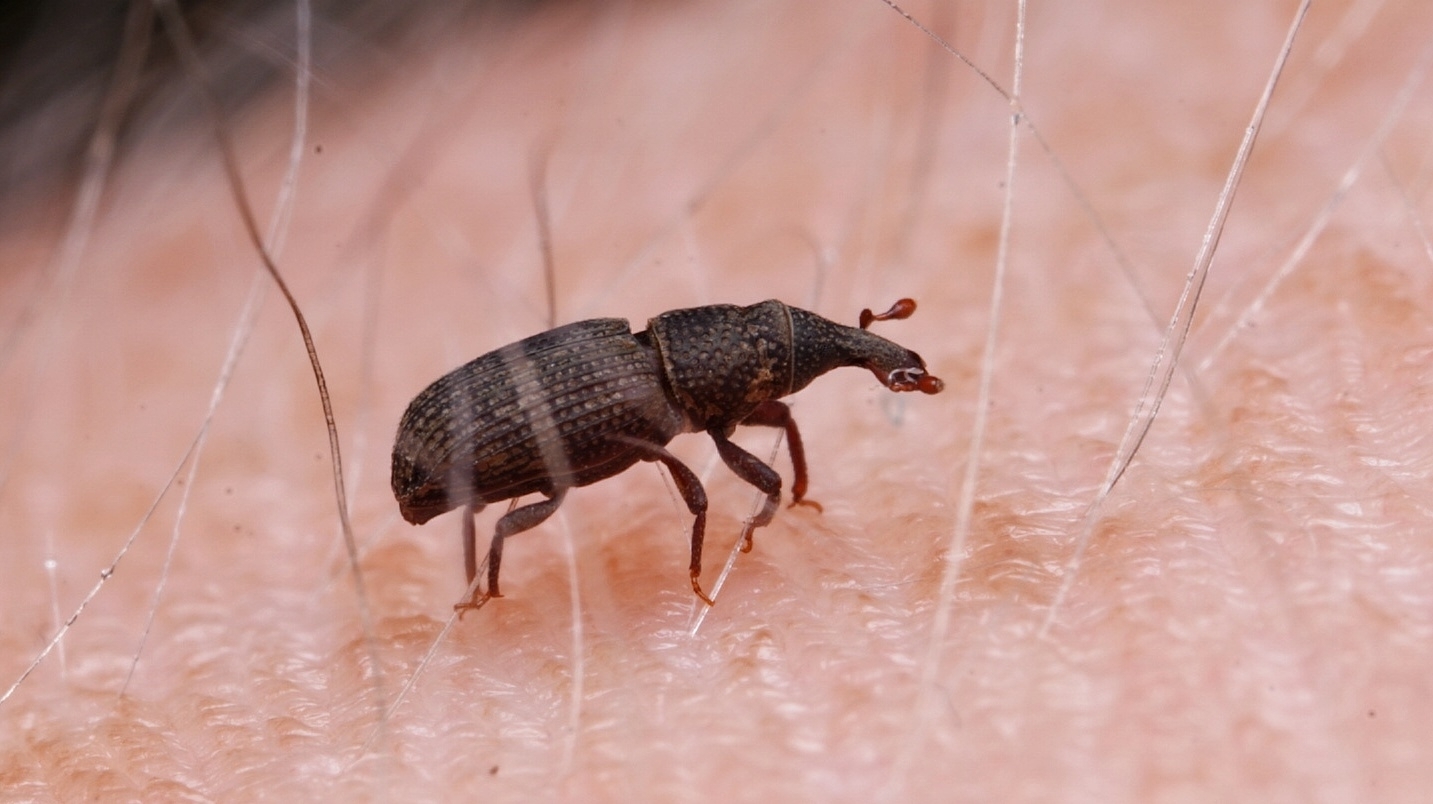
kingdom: Animalia
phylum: Arthropoda
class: Insecta
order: Coleoptera
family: Dryophthoridae
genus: Dryophthorus
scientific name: Dryophthorus americanus
